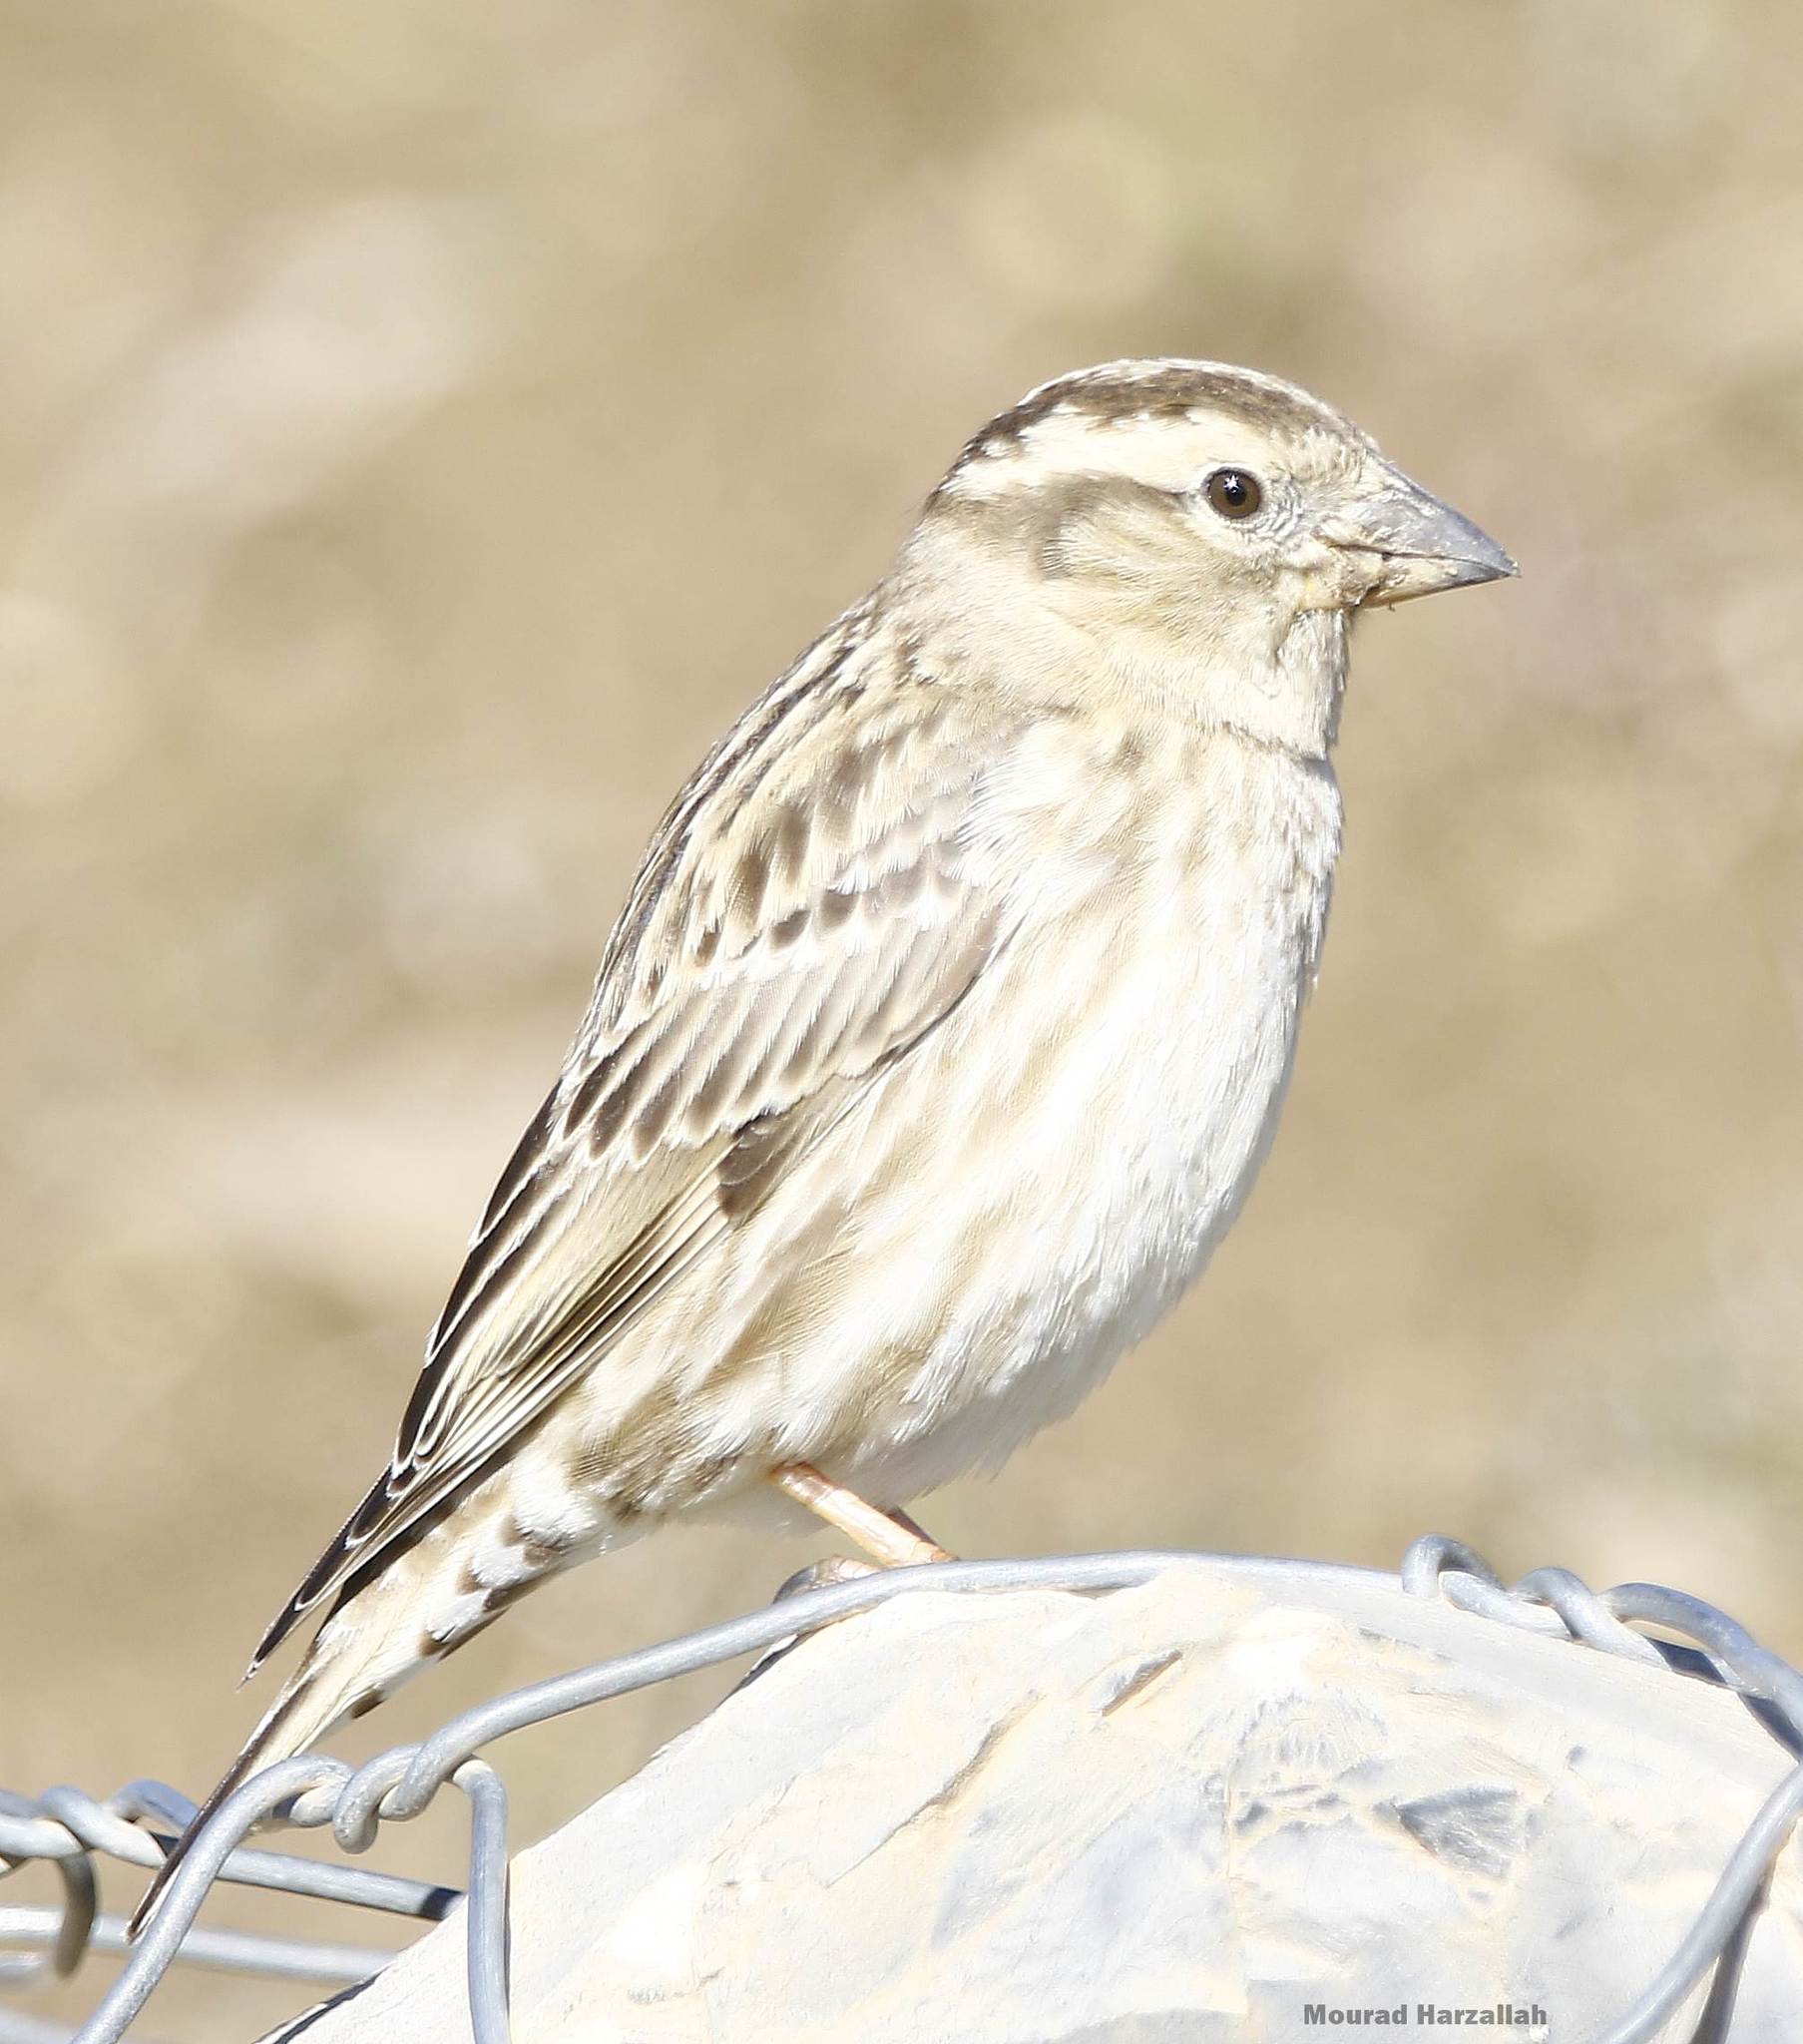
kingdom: Animalia
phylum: Chordata
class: Aves
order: Passeriformes
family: Passeridae
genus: Petronia
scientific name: Petronia petronia
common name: Rock sparrow
